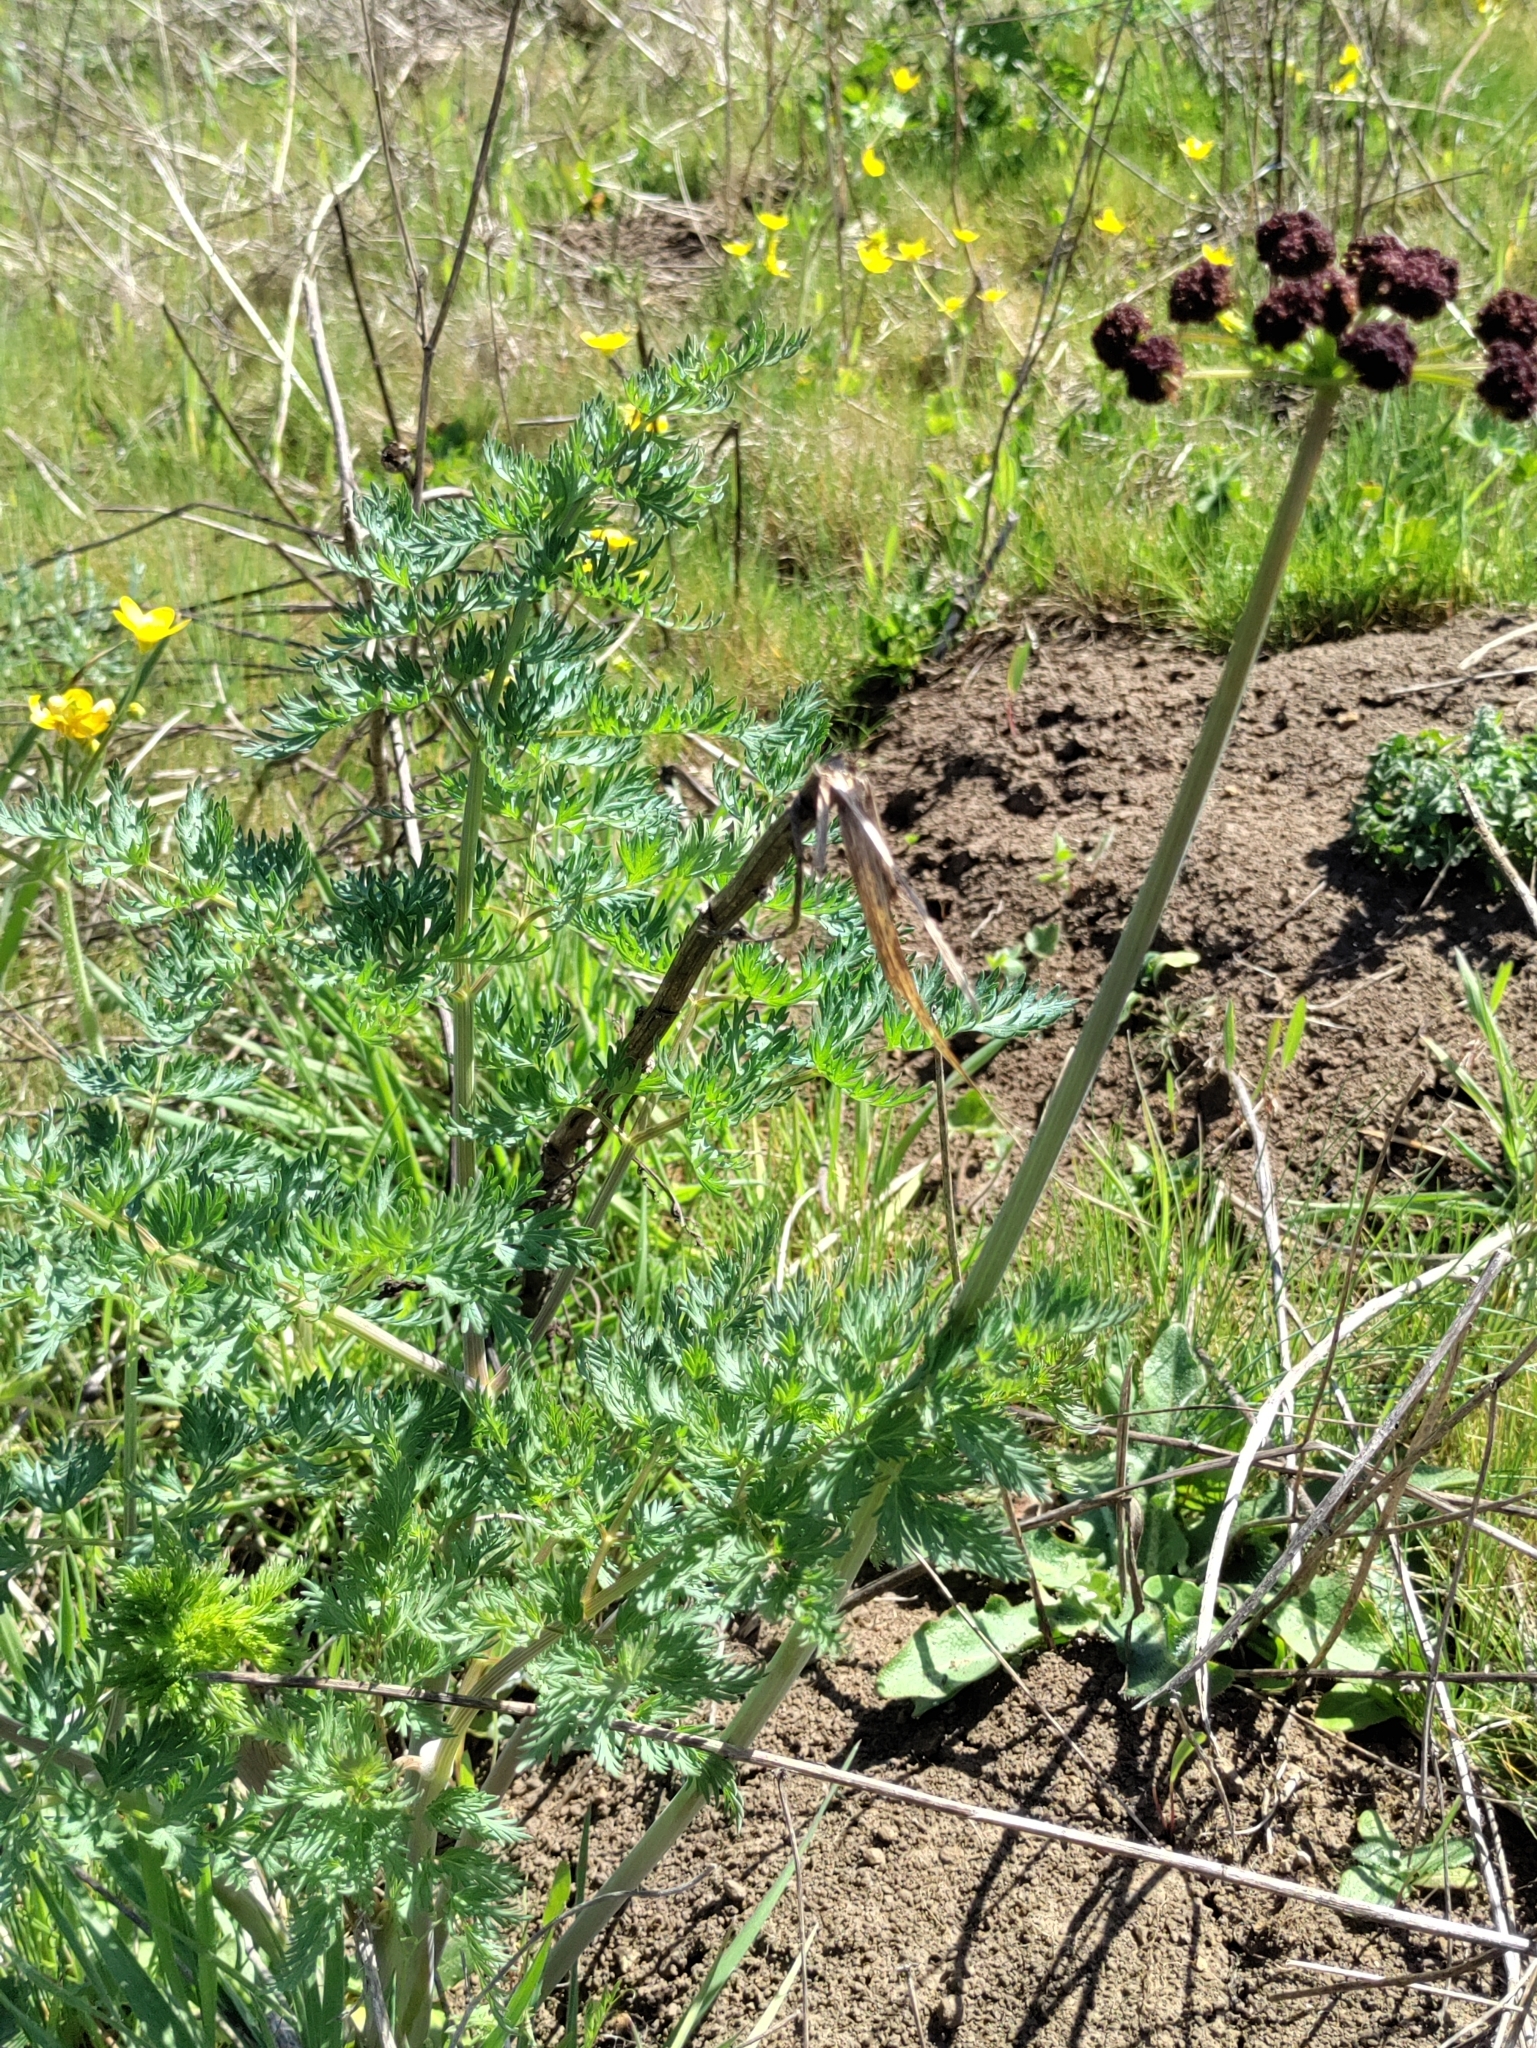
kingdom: Plantae
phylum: Tracheophyta
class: Magnoliopsida
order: Apiales
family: Apiaceae
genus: Lomatium
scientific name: Lomatium dissectum
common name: Lomatium
